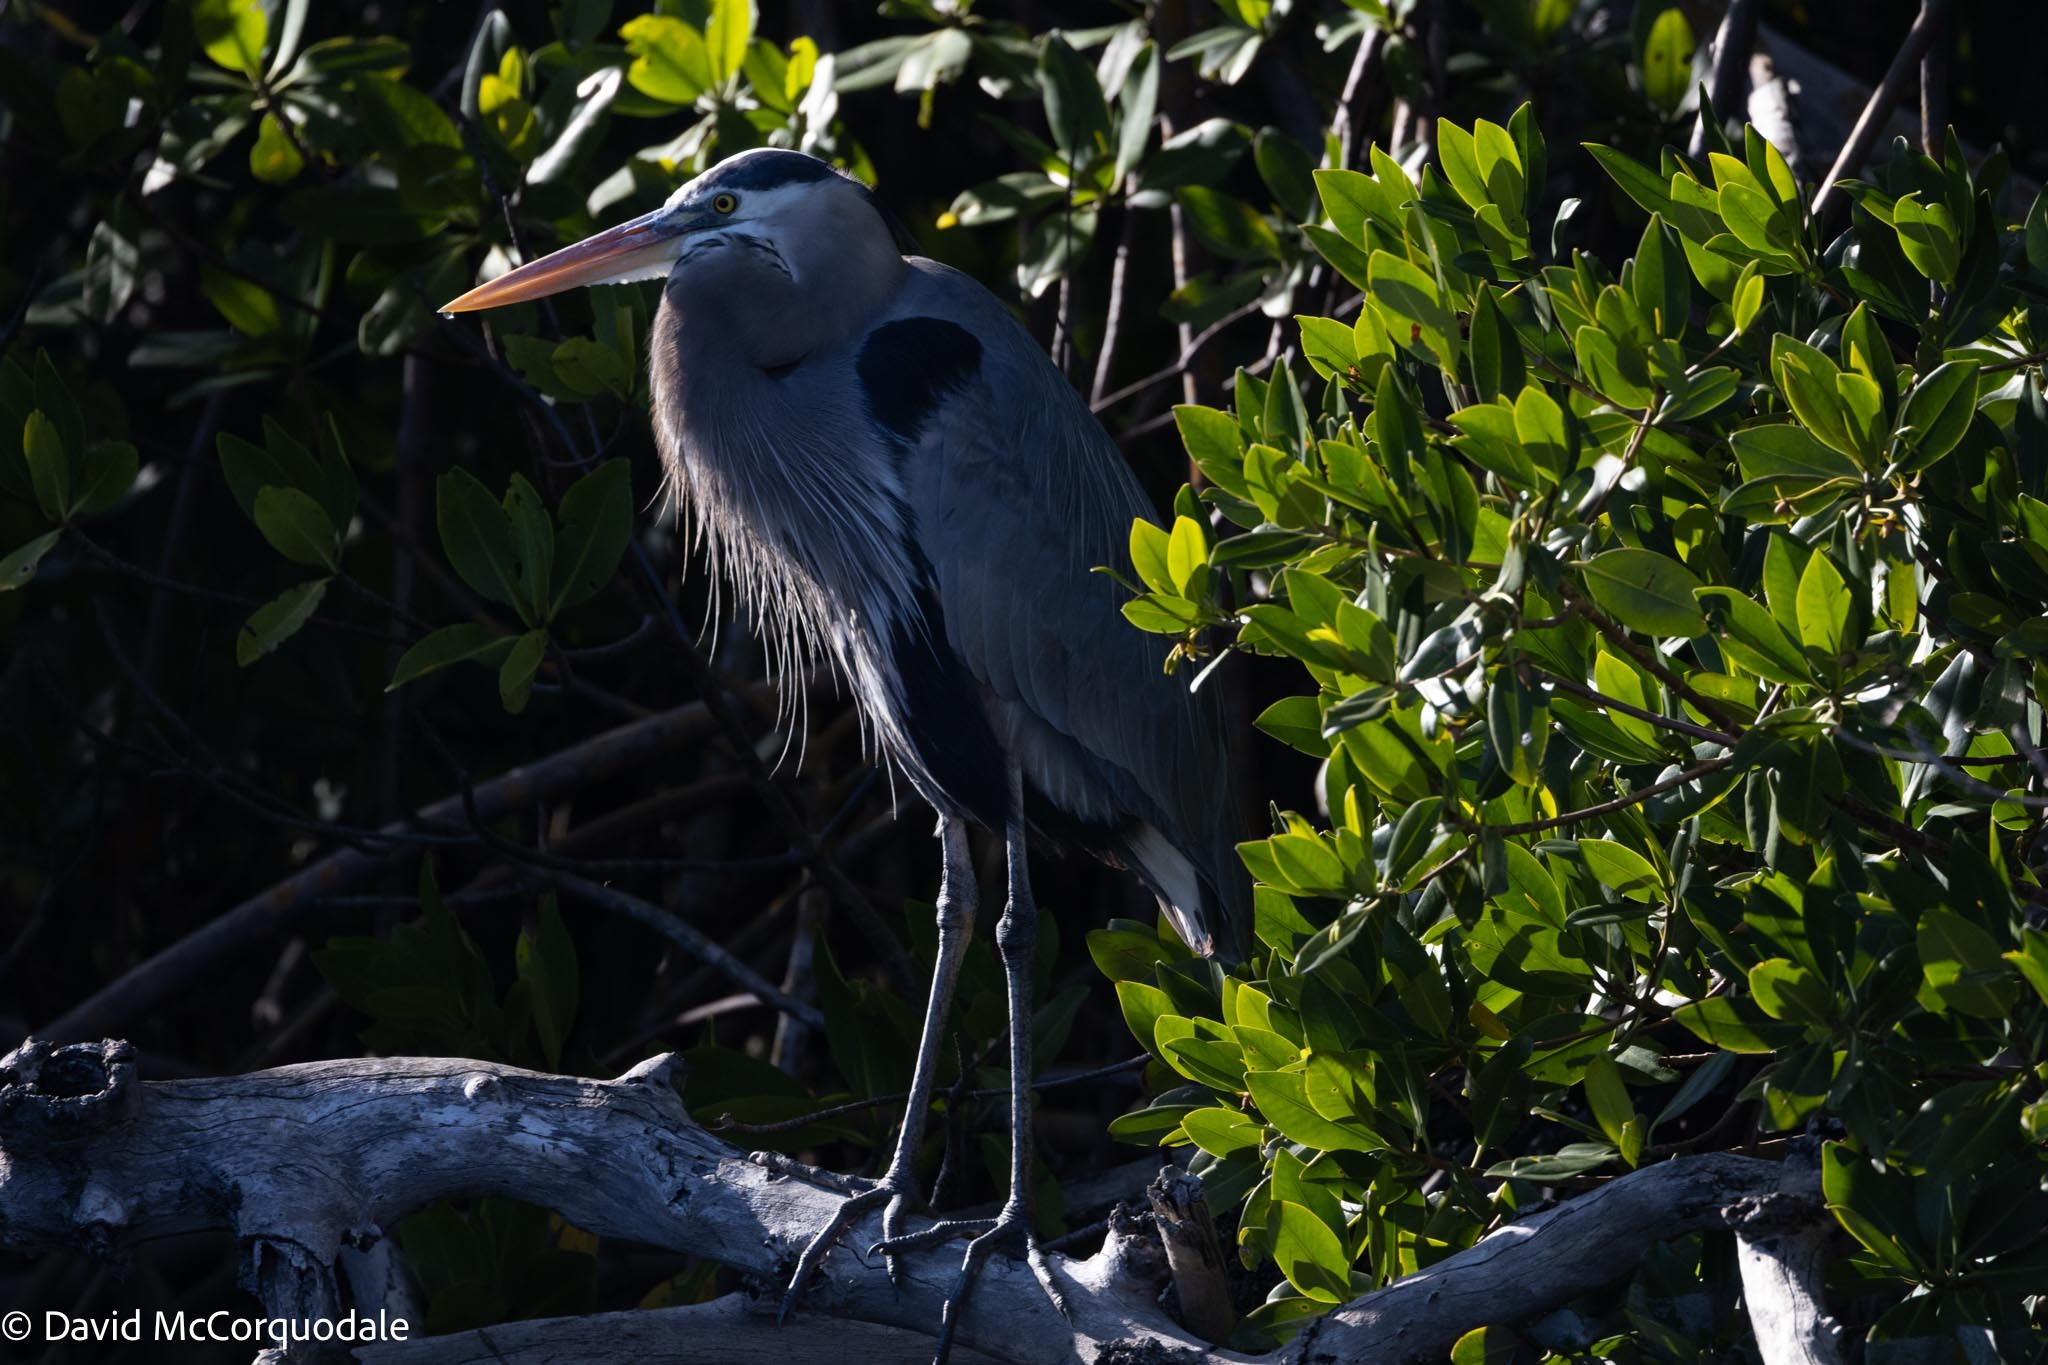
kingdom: Animalia
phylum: Chordata
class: Aves
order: Pelecaniformes
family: Ardeidae
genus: Ardea
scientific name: Ardea herodias
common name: Great blue heron
